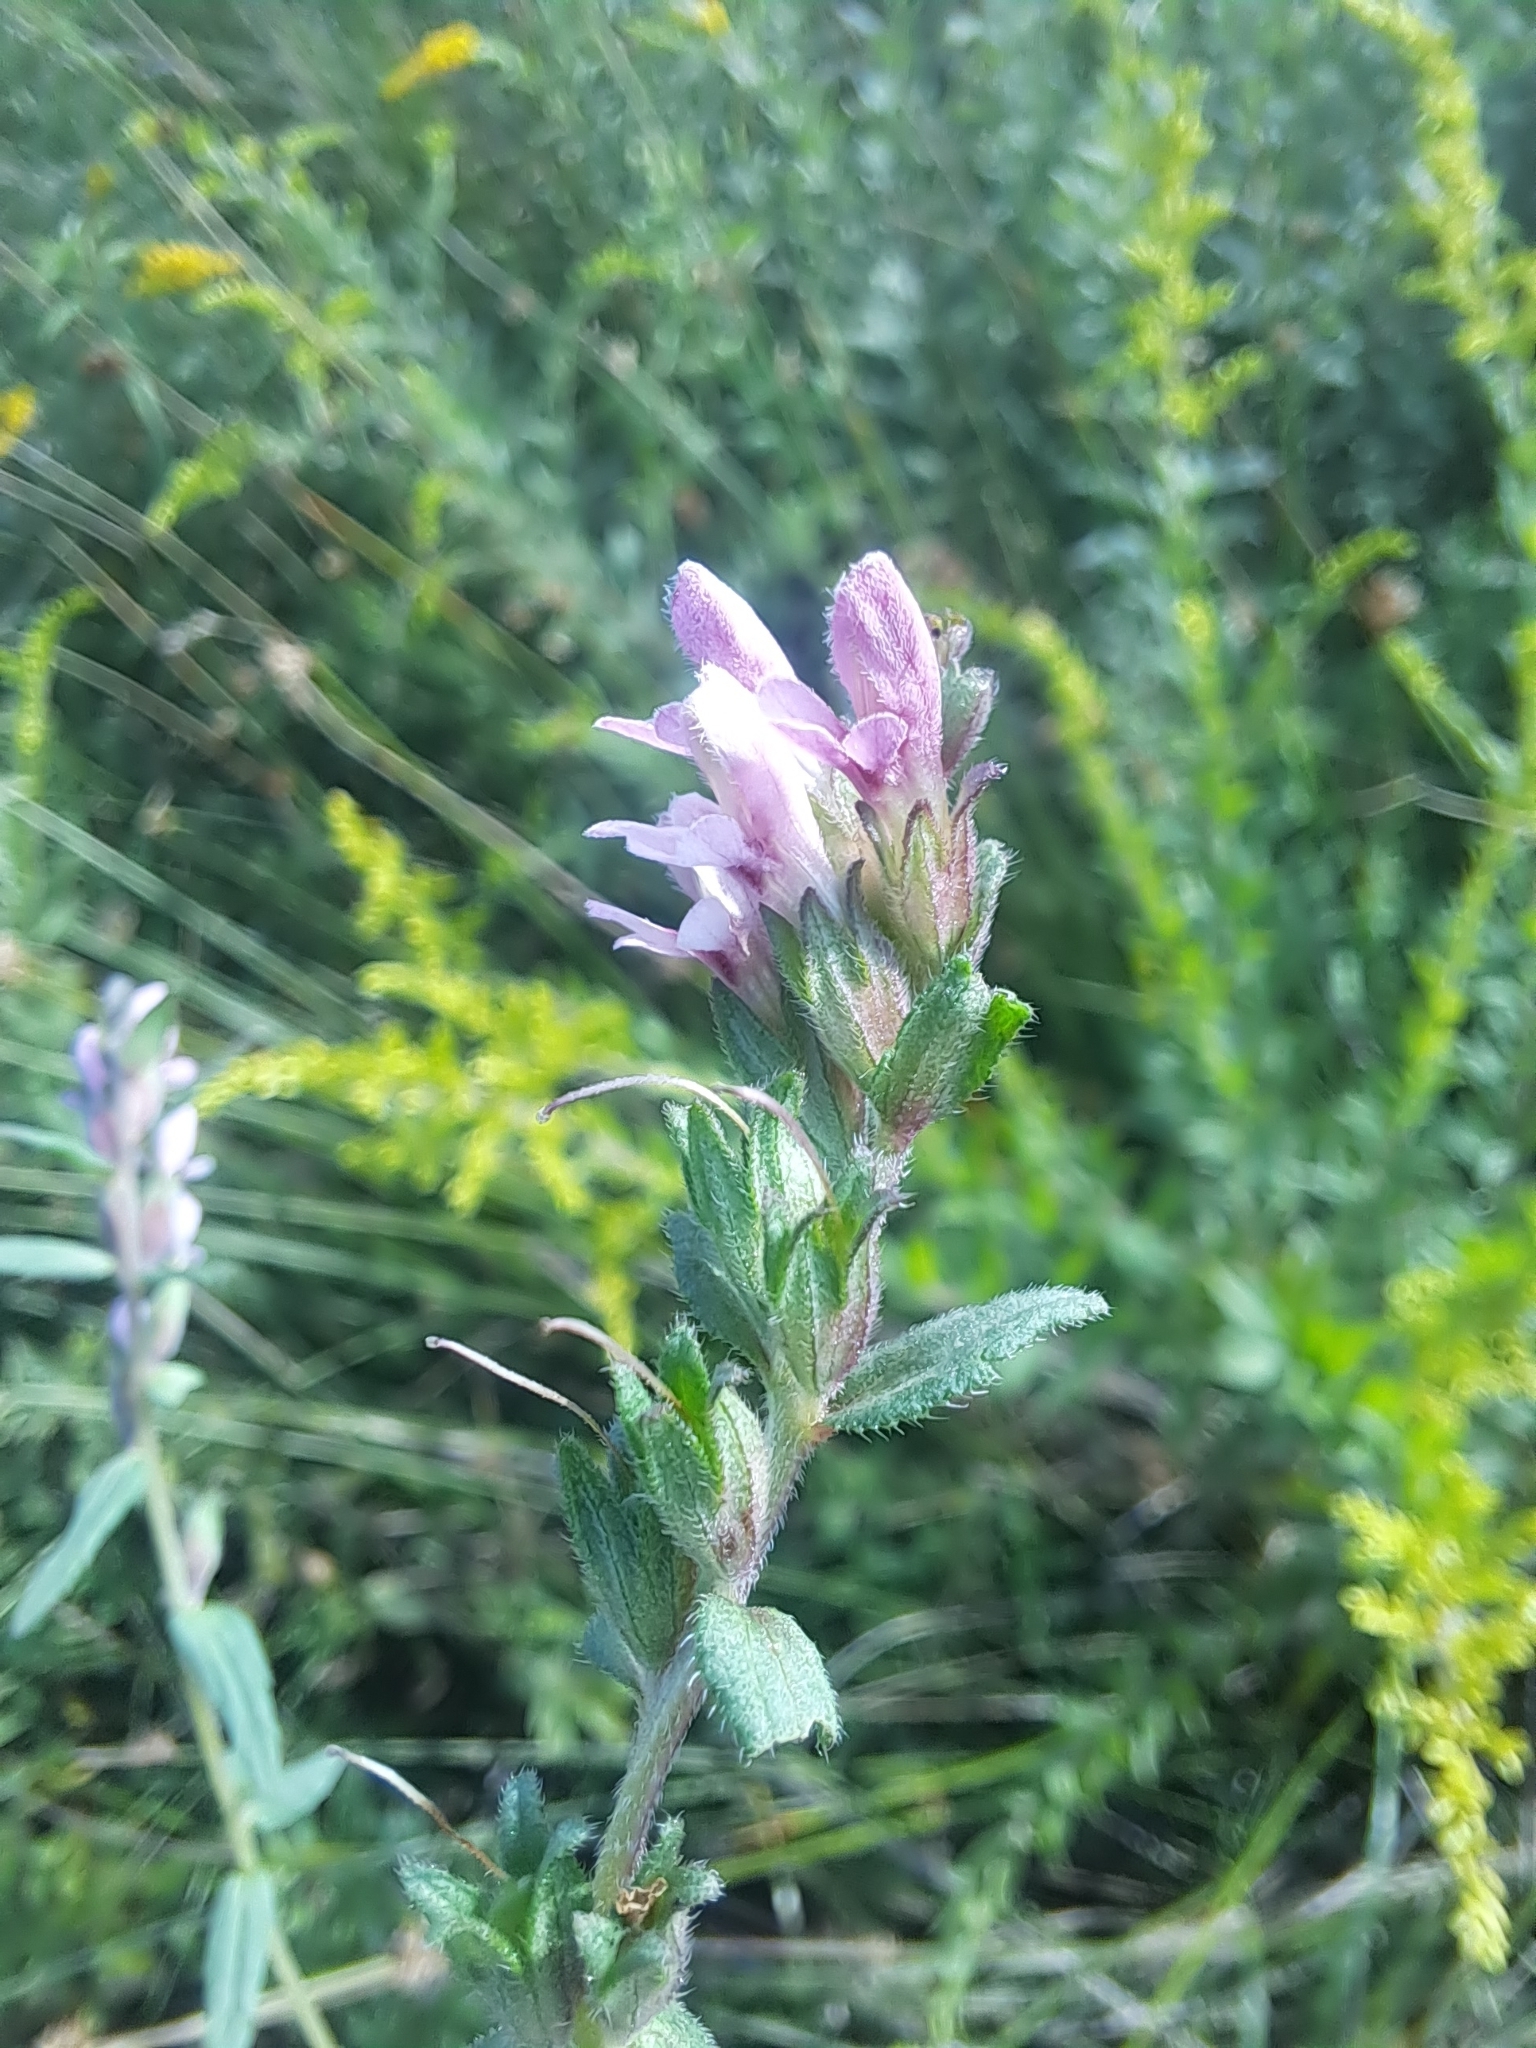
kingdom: Plantae
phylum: Tracheophyta
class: Magnoliopsida
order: Lamiales
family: Orobanchaceae
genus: Odontites
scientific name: Odontites vulgaris
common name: Broomrape
